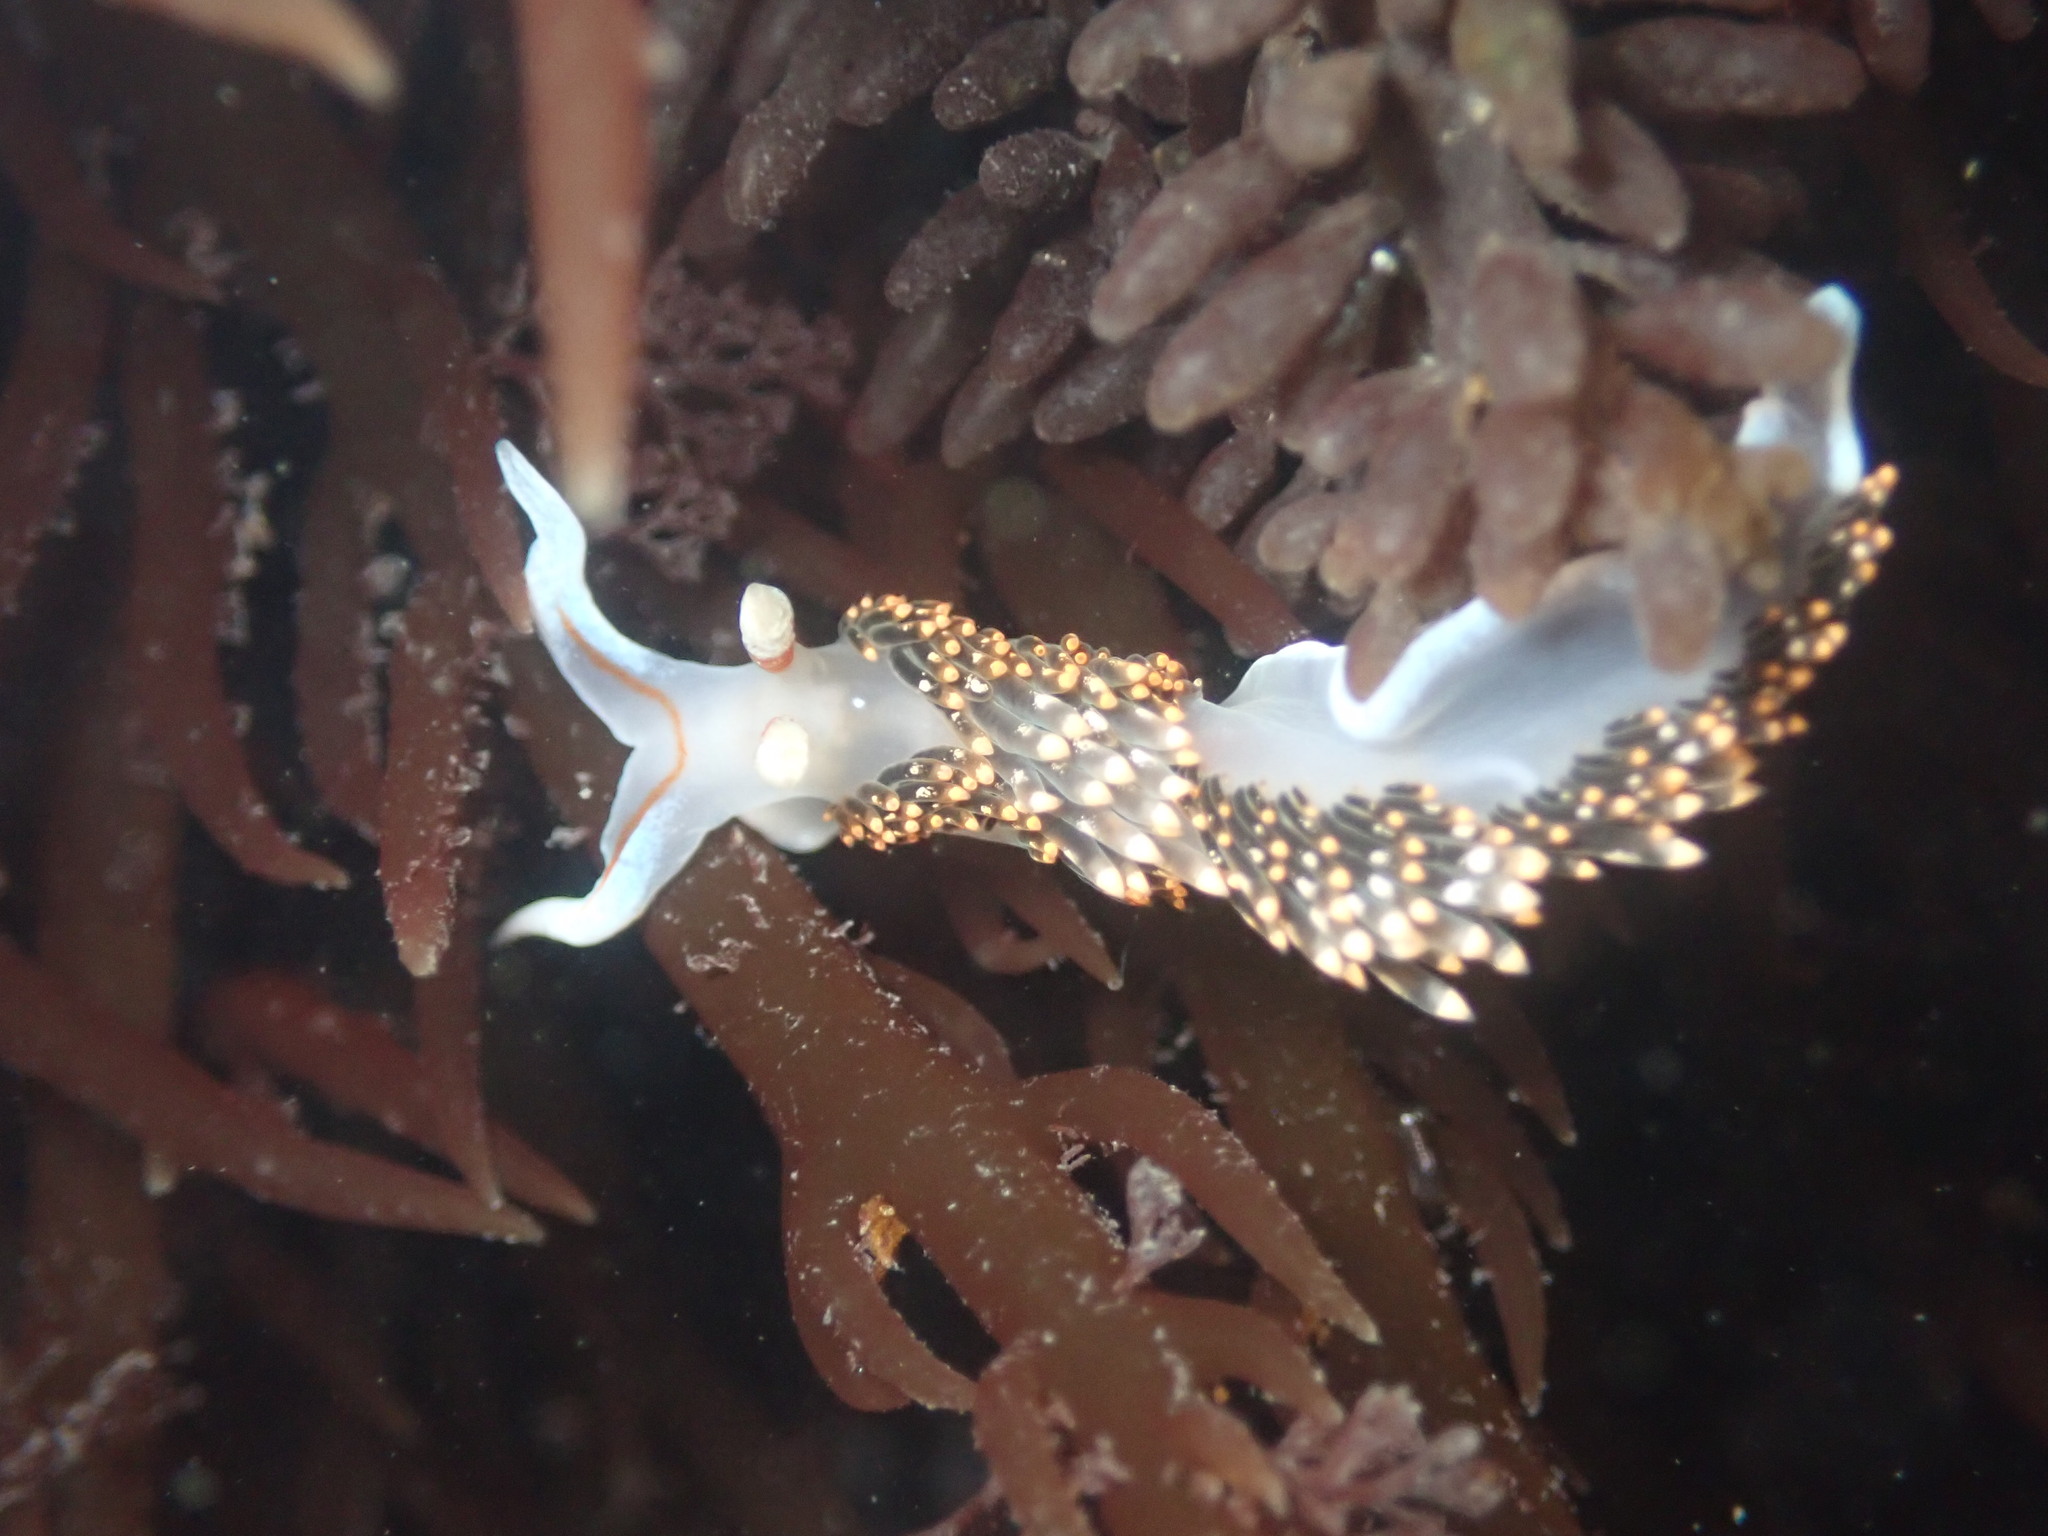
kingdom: Animalia
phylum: Mollusca
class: Gastropoda
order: Nudibranchia
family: Facelinidae
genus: Phidiana
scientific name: Phidiana hiltoni
